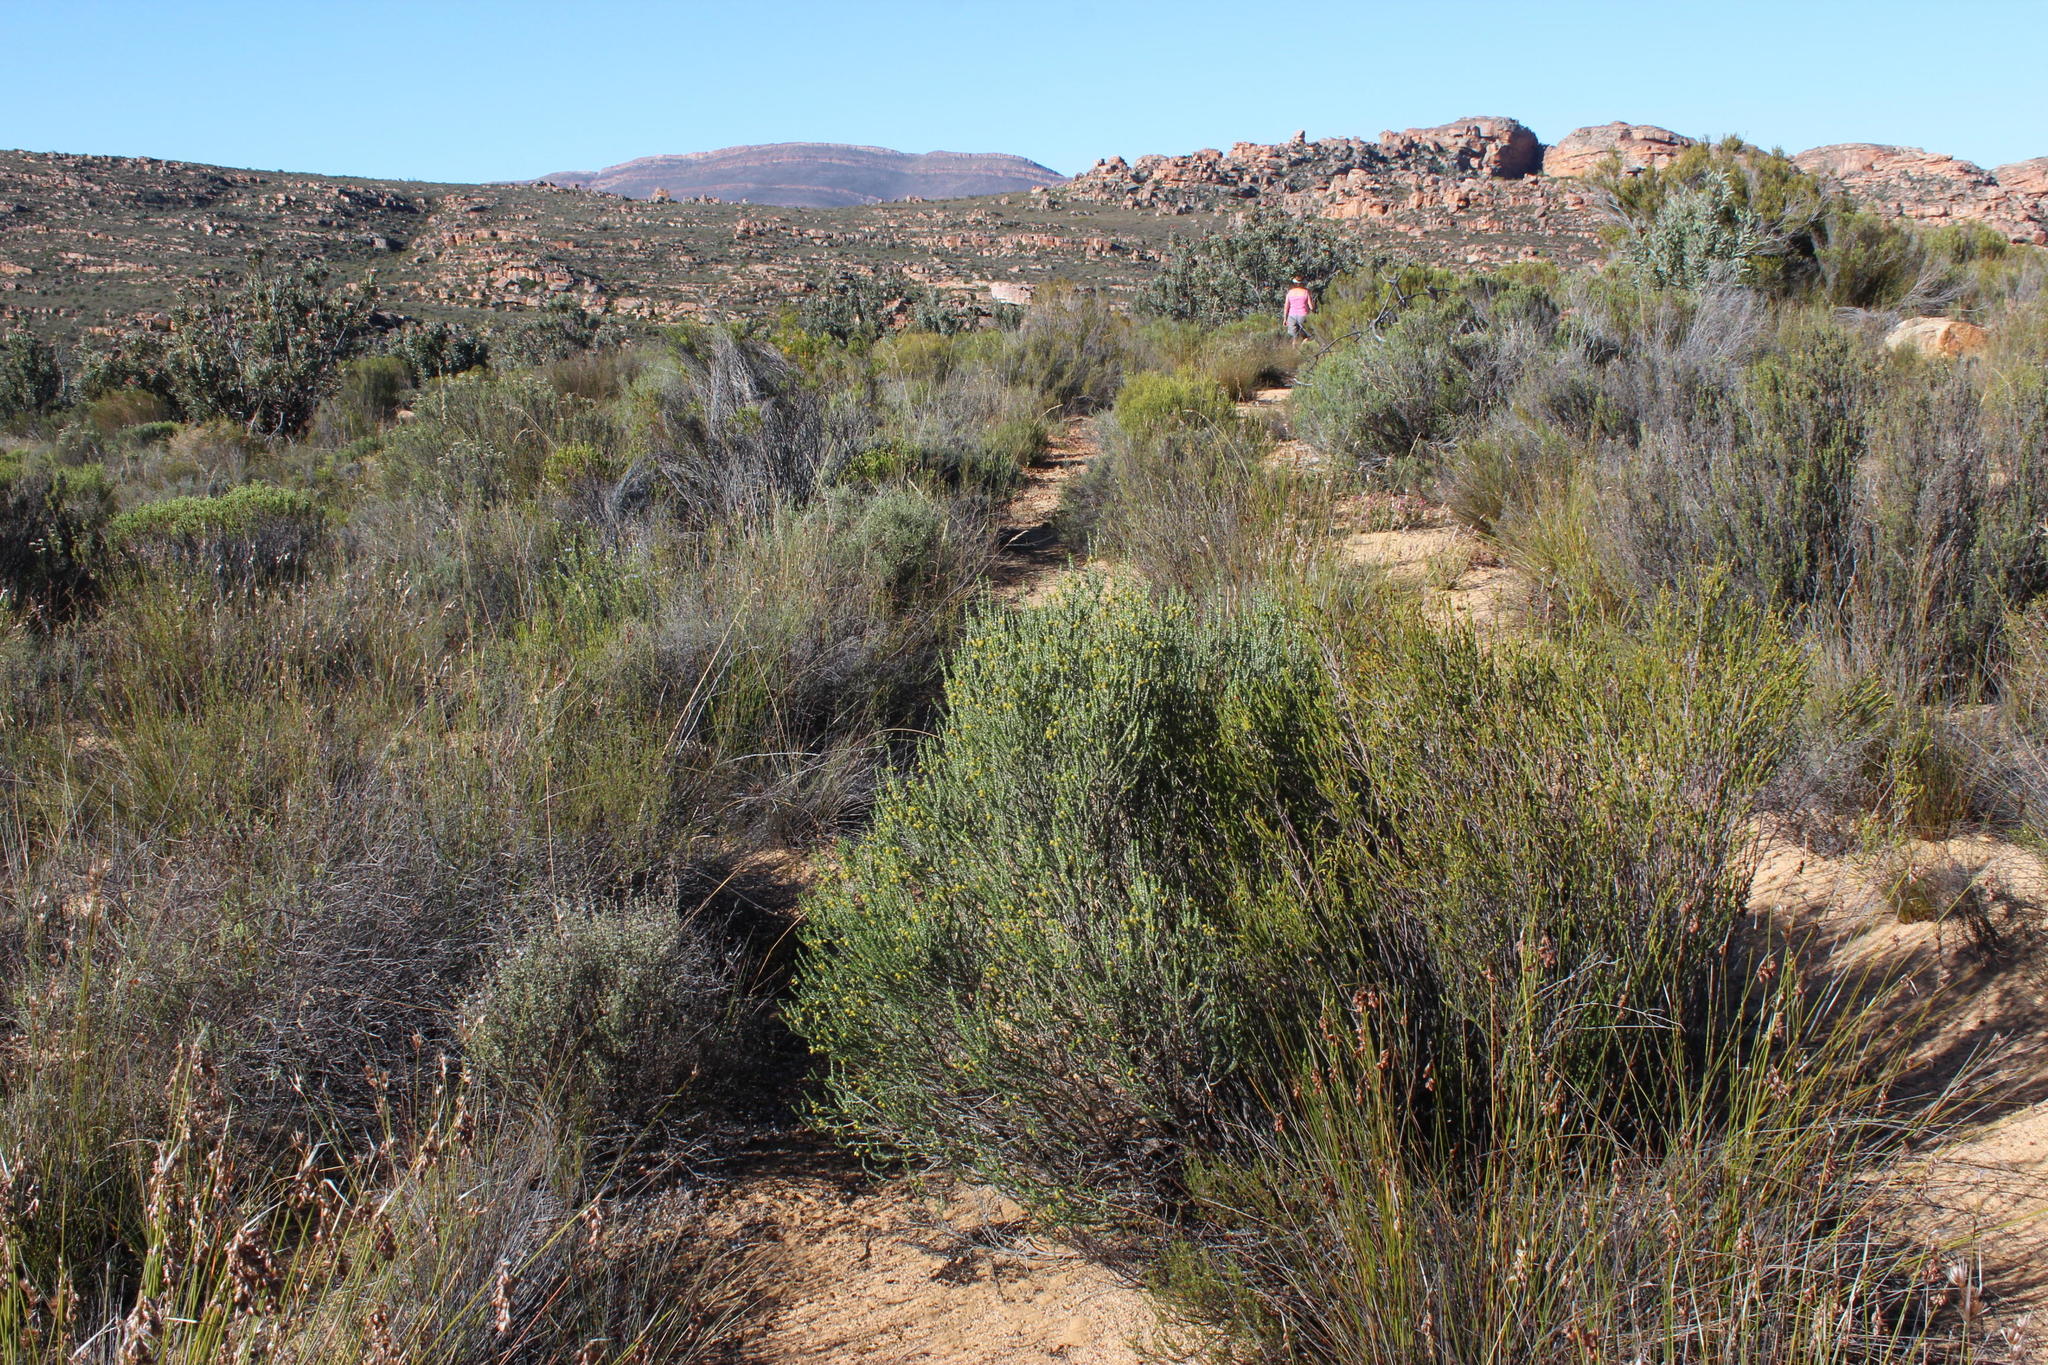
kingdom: Plantae
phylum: Tracheophyta
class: Magnoliopsida
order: Fabales
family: Fabaceae
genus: Aspalathus
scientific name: Aspalathus costulata
